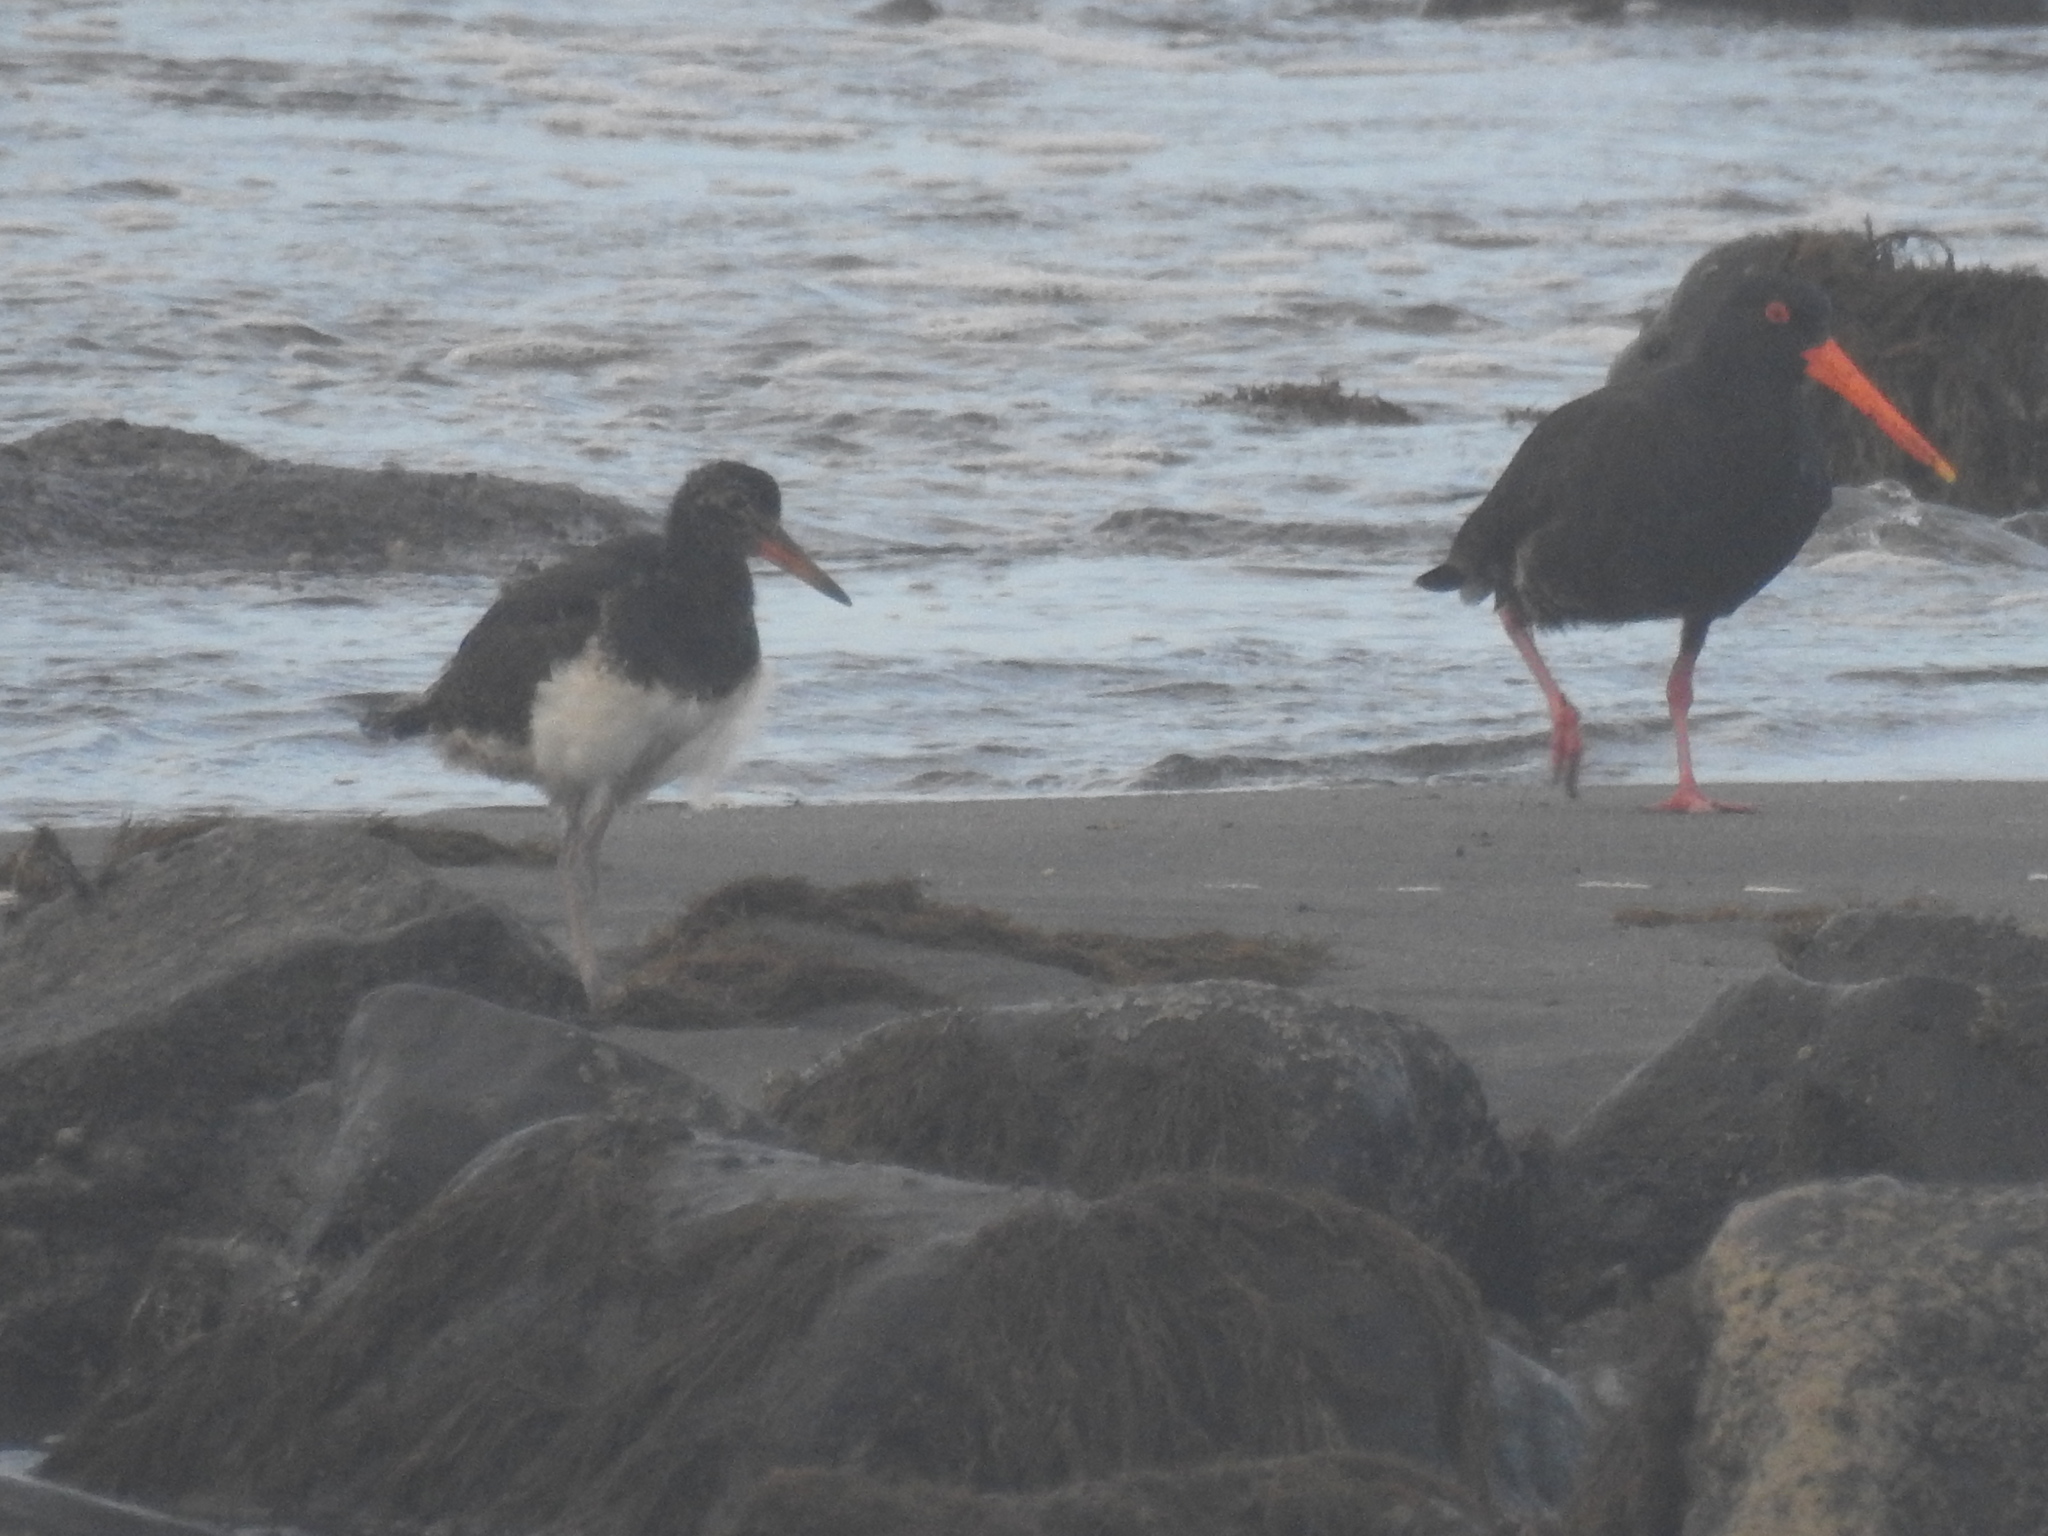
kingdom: Animalia
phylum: Chordata
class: Aves
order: Charadriiformes
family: Haematopodidae
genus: Haematopus
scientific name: Haematopus unicolor
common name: Variable oystercatcher
